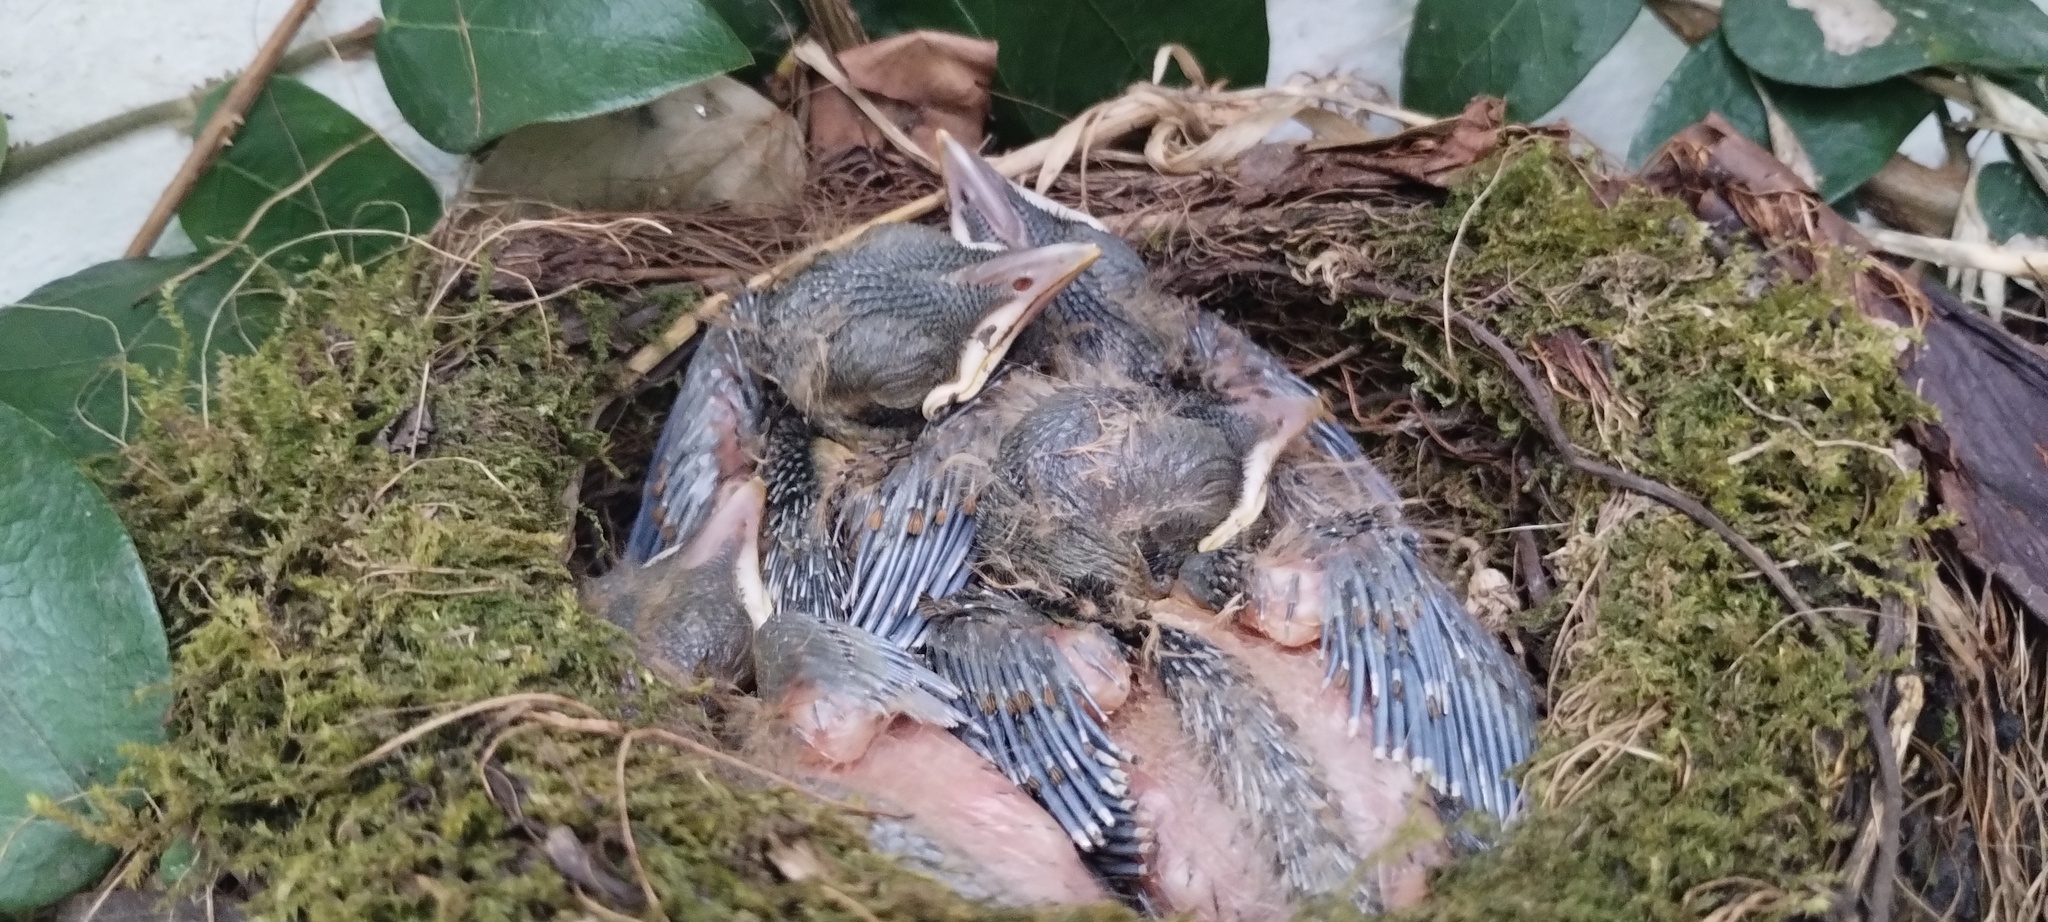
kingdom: Animalia
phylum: Chordata
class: Aves
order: Passeriformes
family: Turdidae
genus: Turdus
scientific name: Turdus rufiventris
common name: Rufous-bellied thrush
